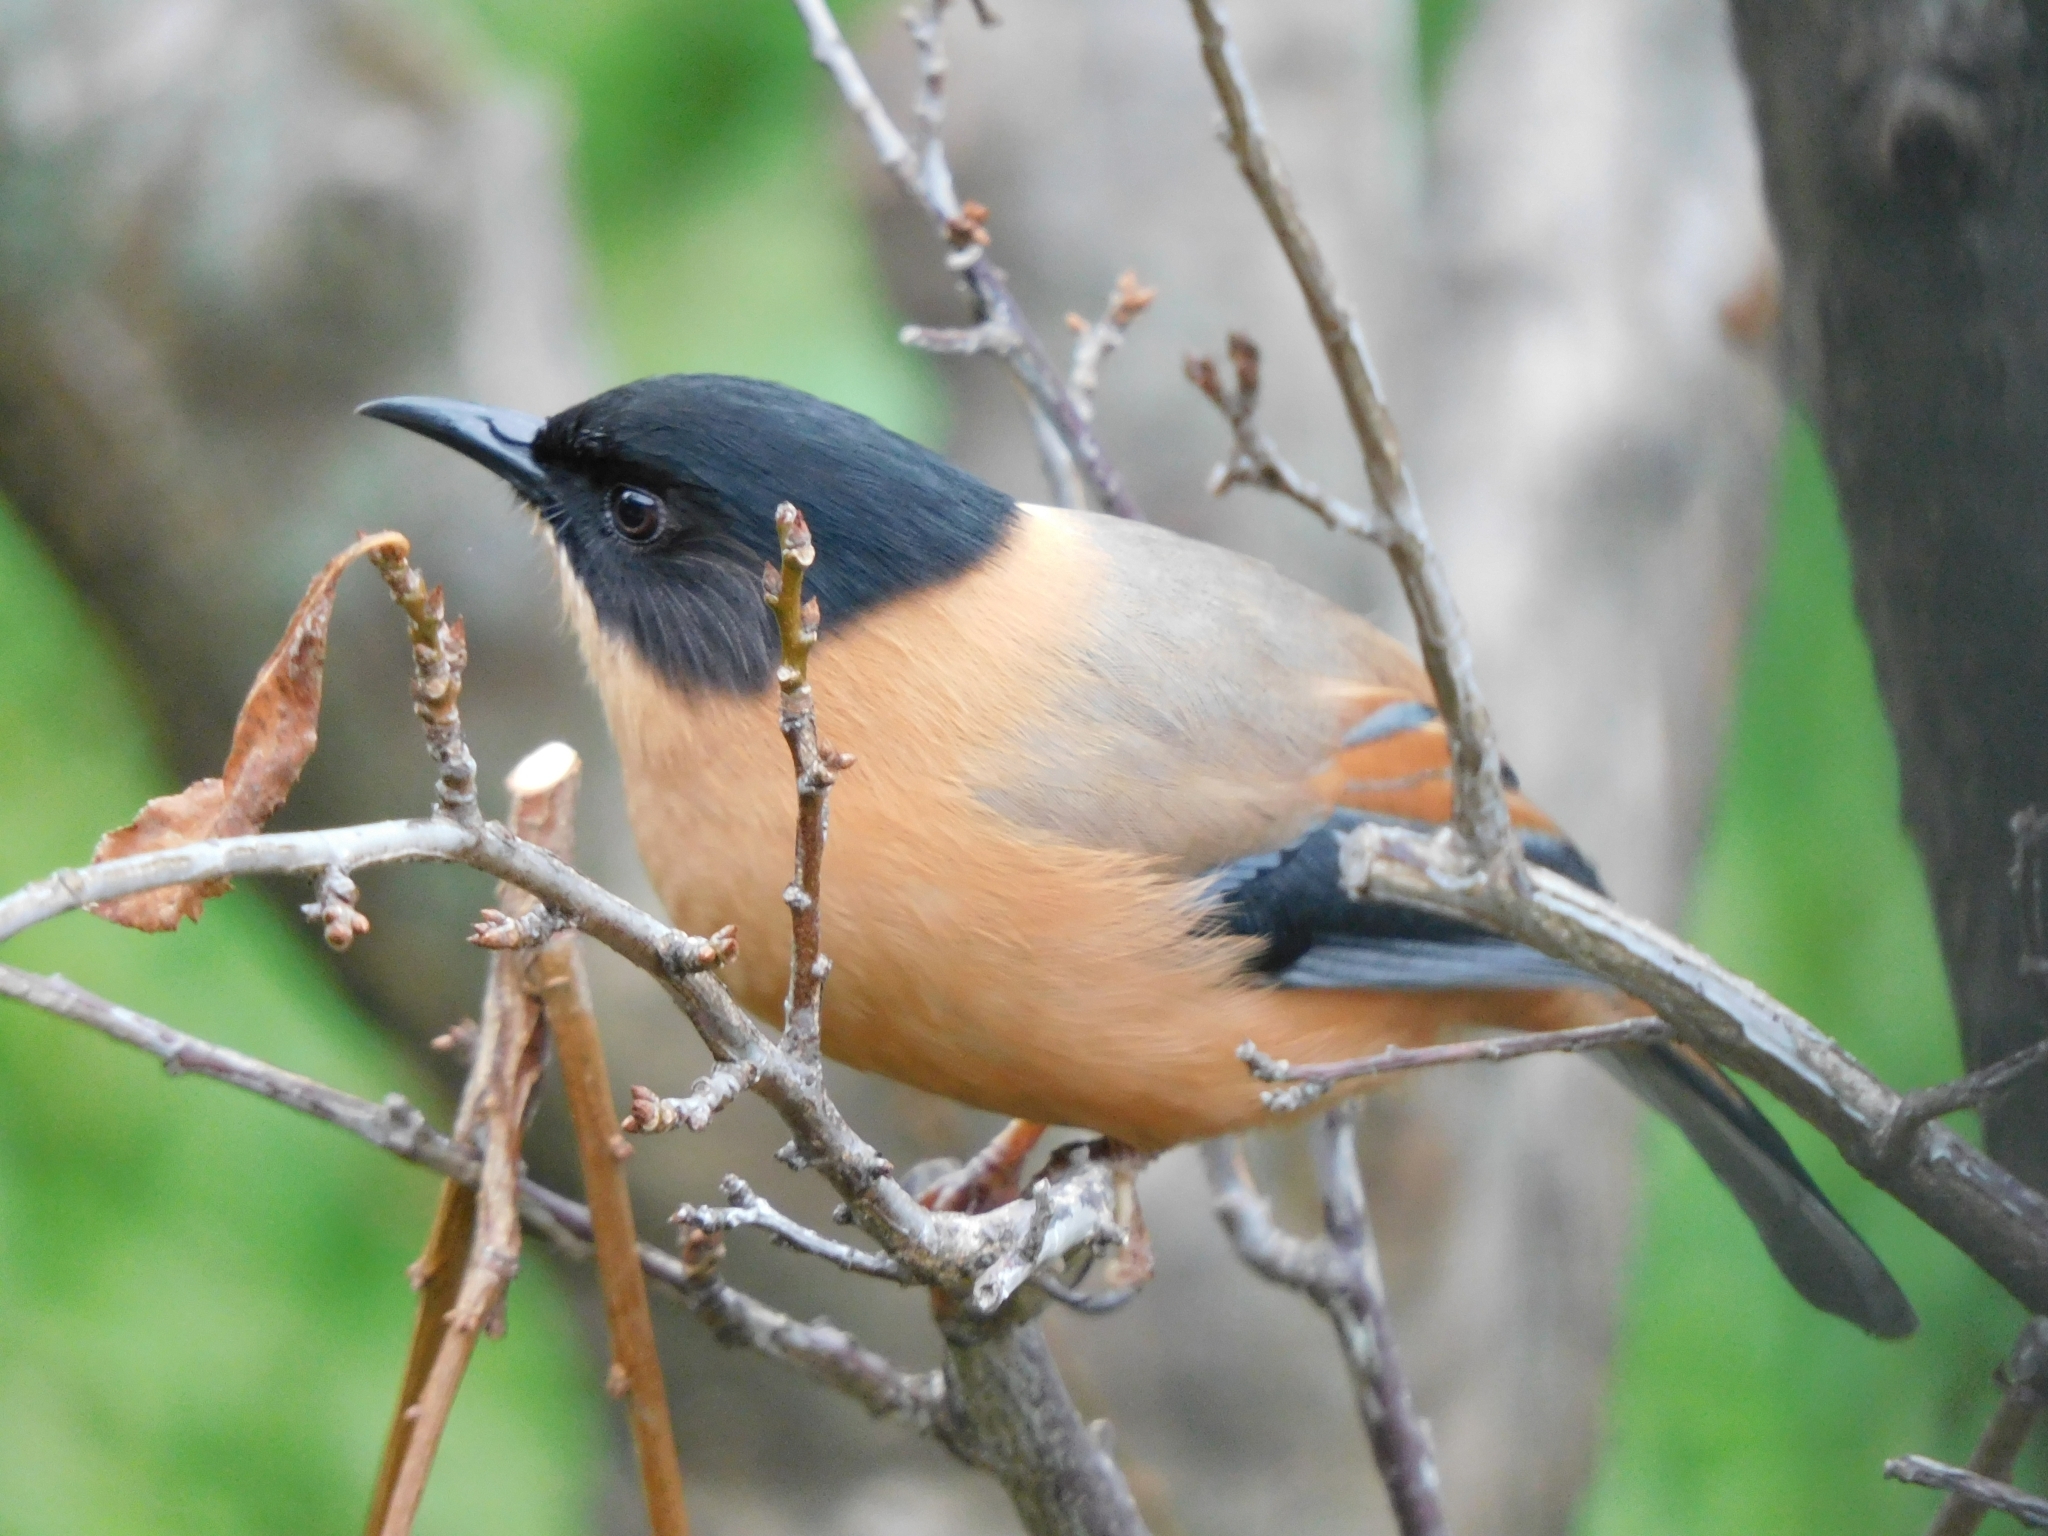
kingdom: Animalia
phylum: Chordata
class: Aves
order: Passeriformes
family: Leiothrichidae
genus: Heterophasia
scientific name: Heterophasia capistrata
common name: Rufous sibia
